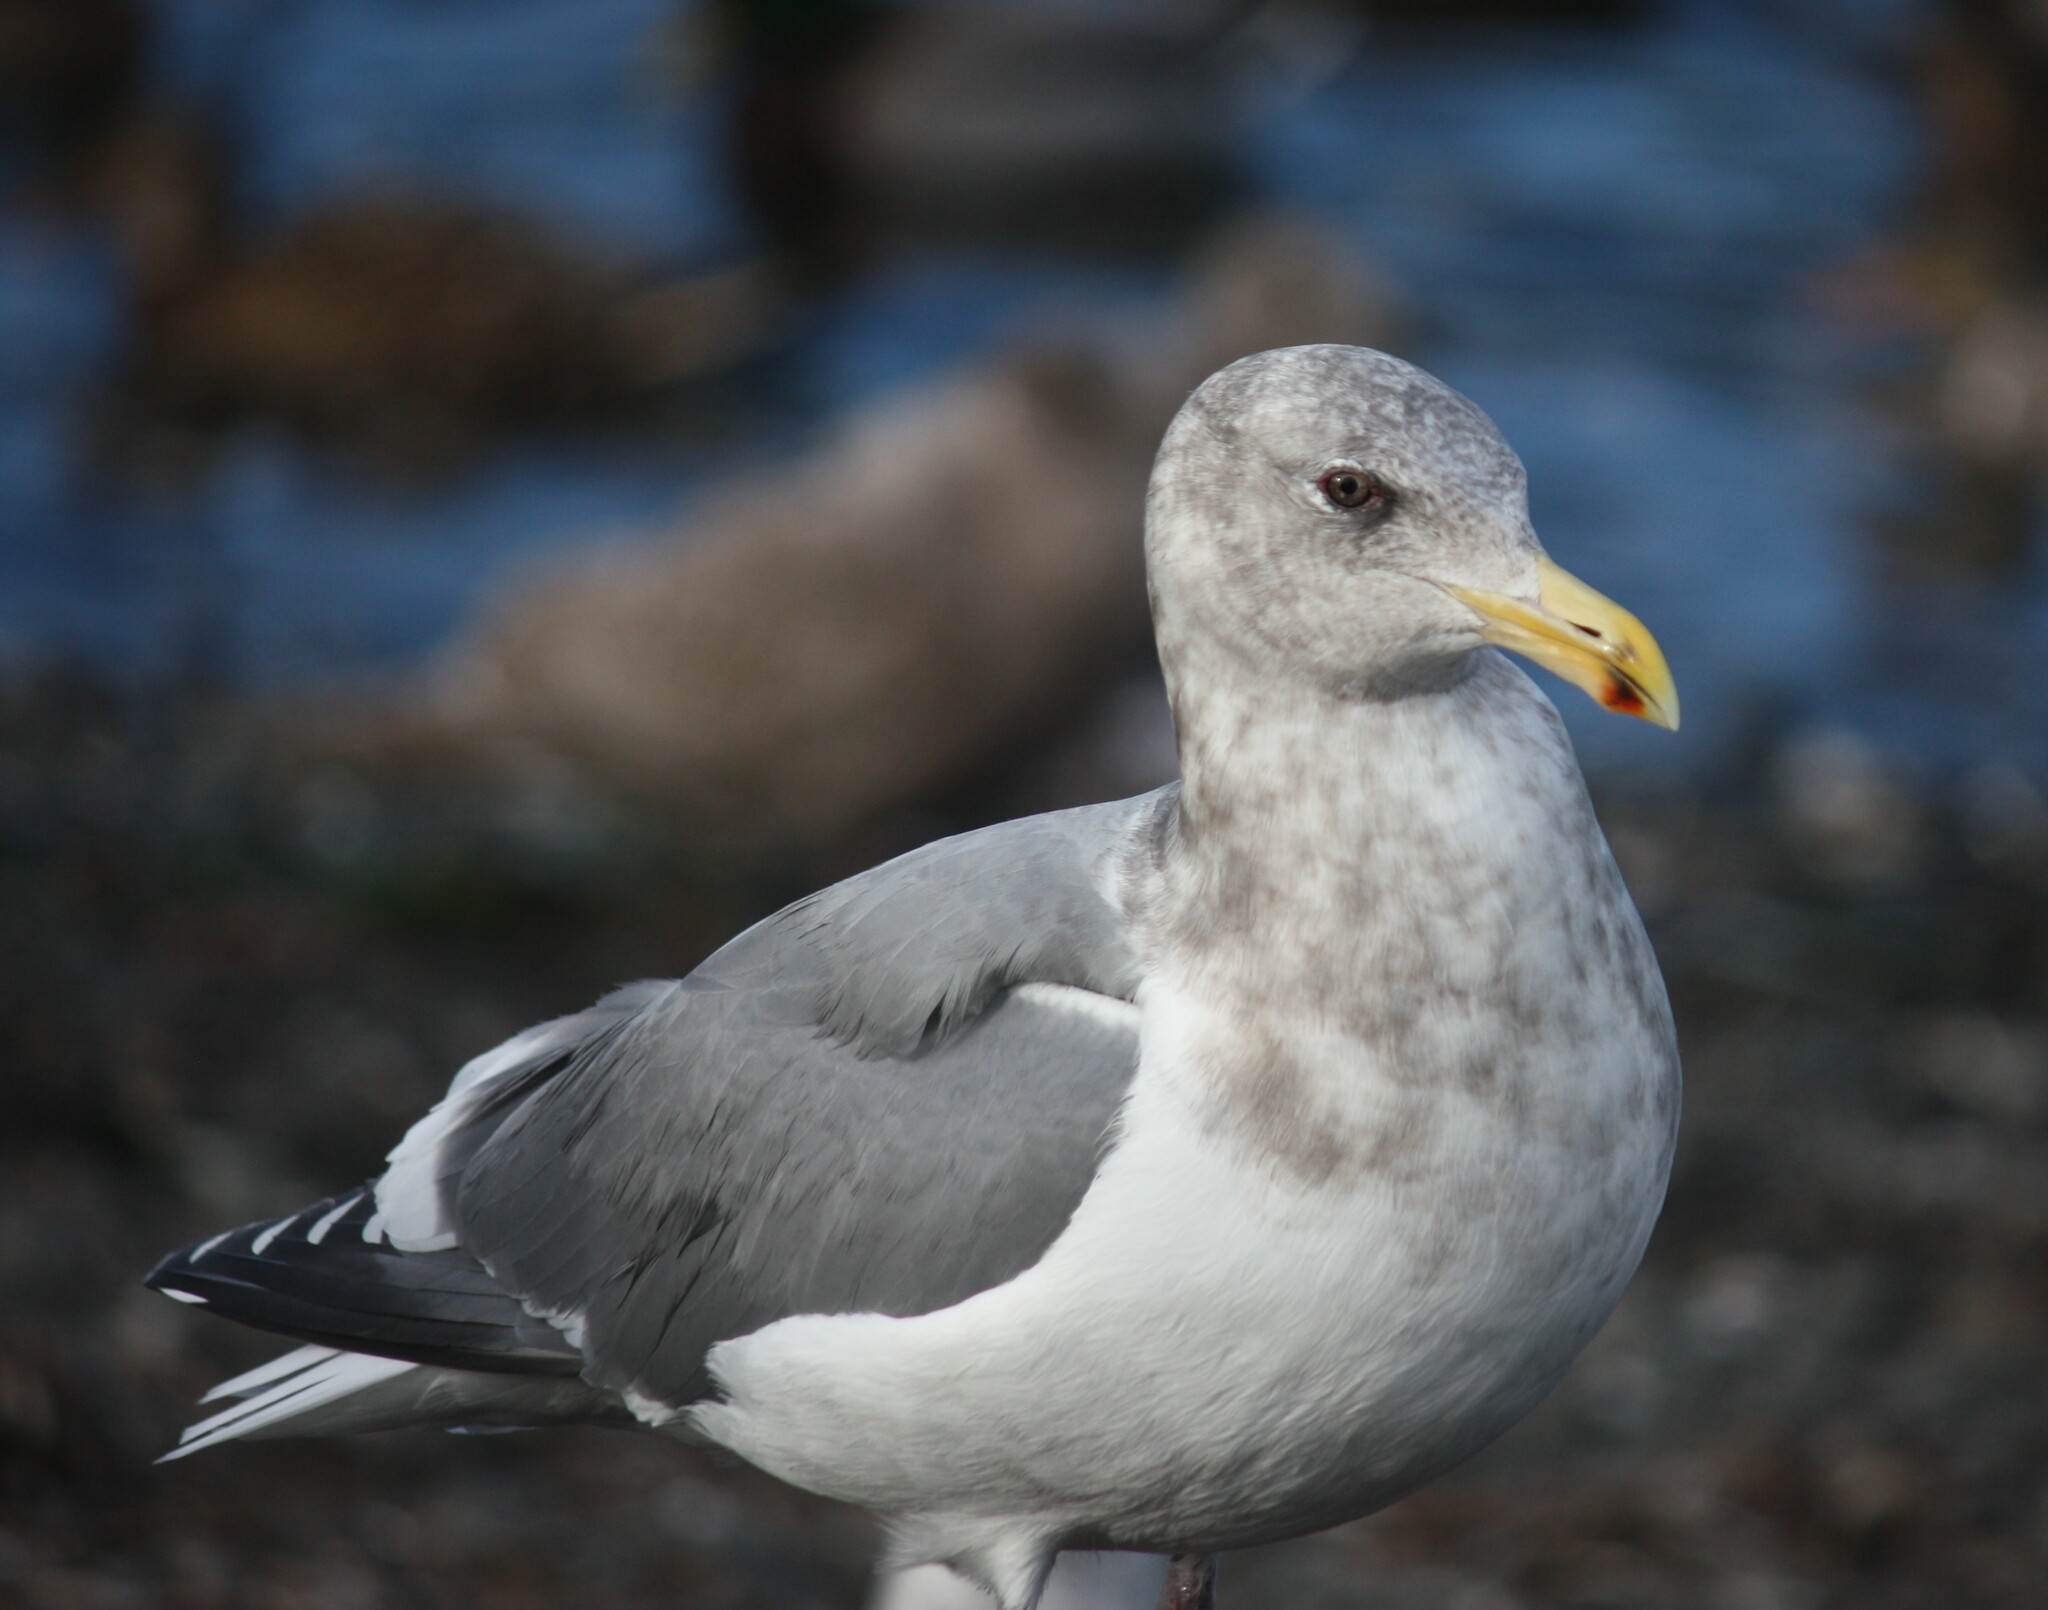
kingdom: Animalia
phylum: Chordata
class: Aves
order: Charadriiformes
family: Laridae
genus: Larus
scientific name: Larus
